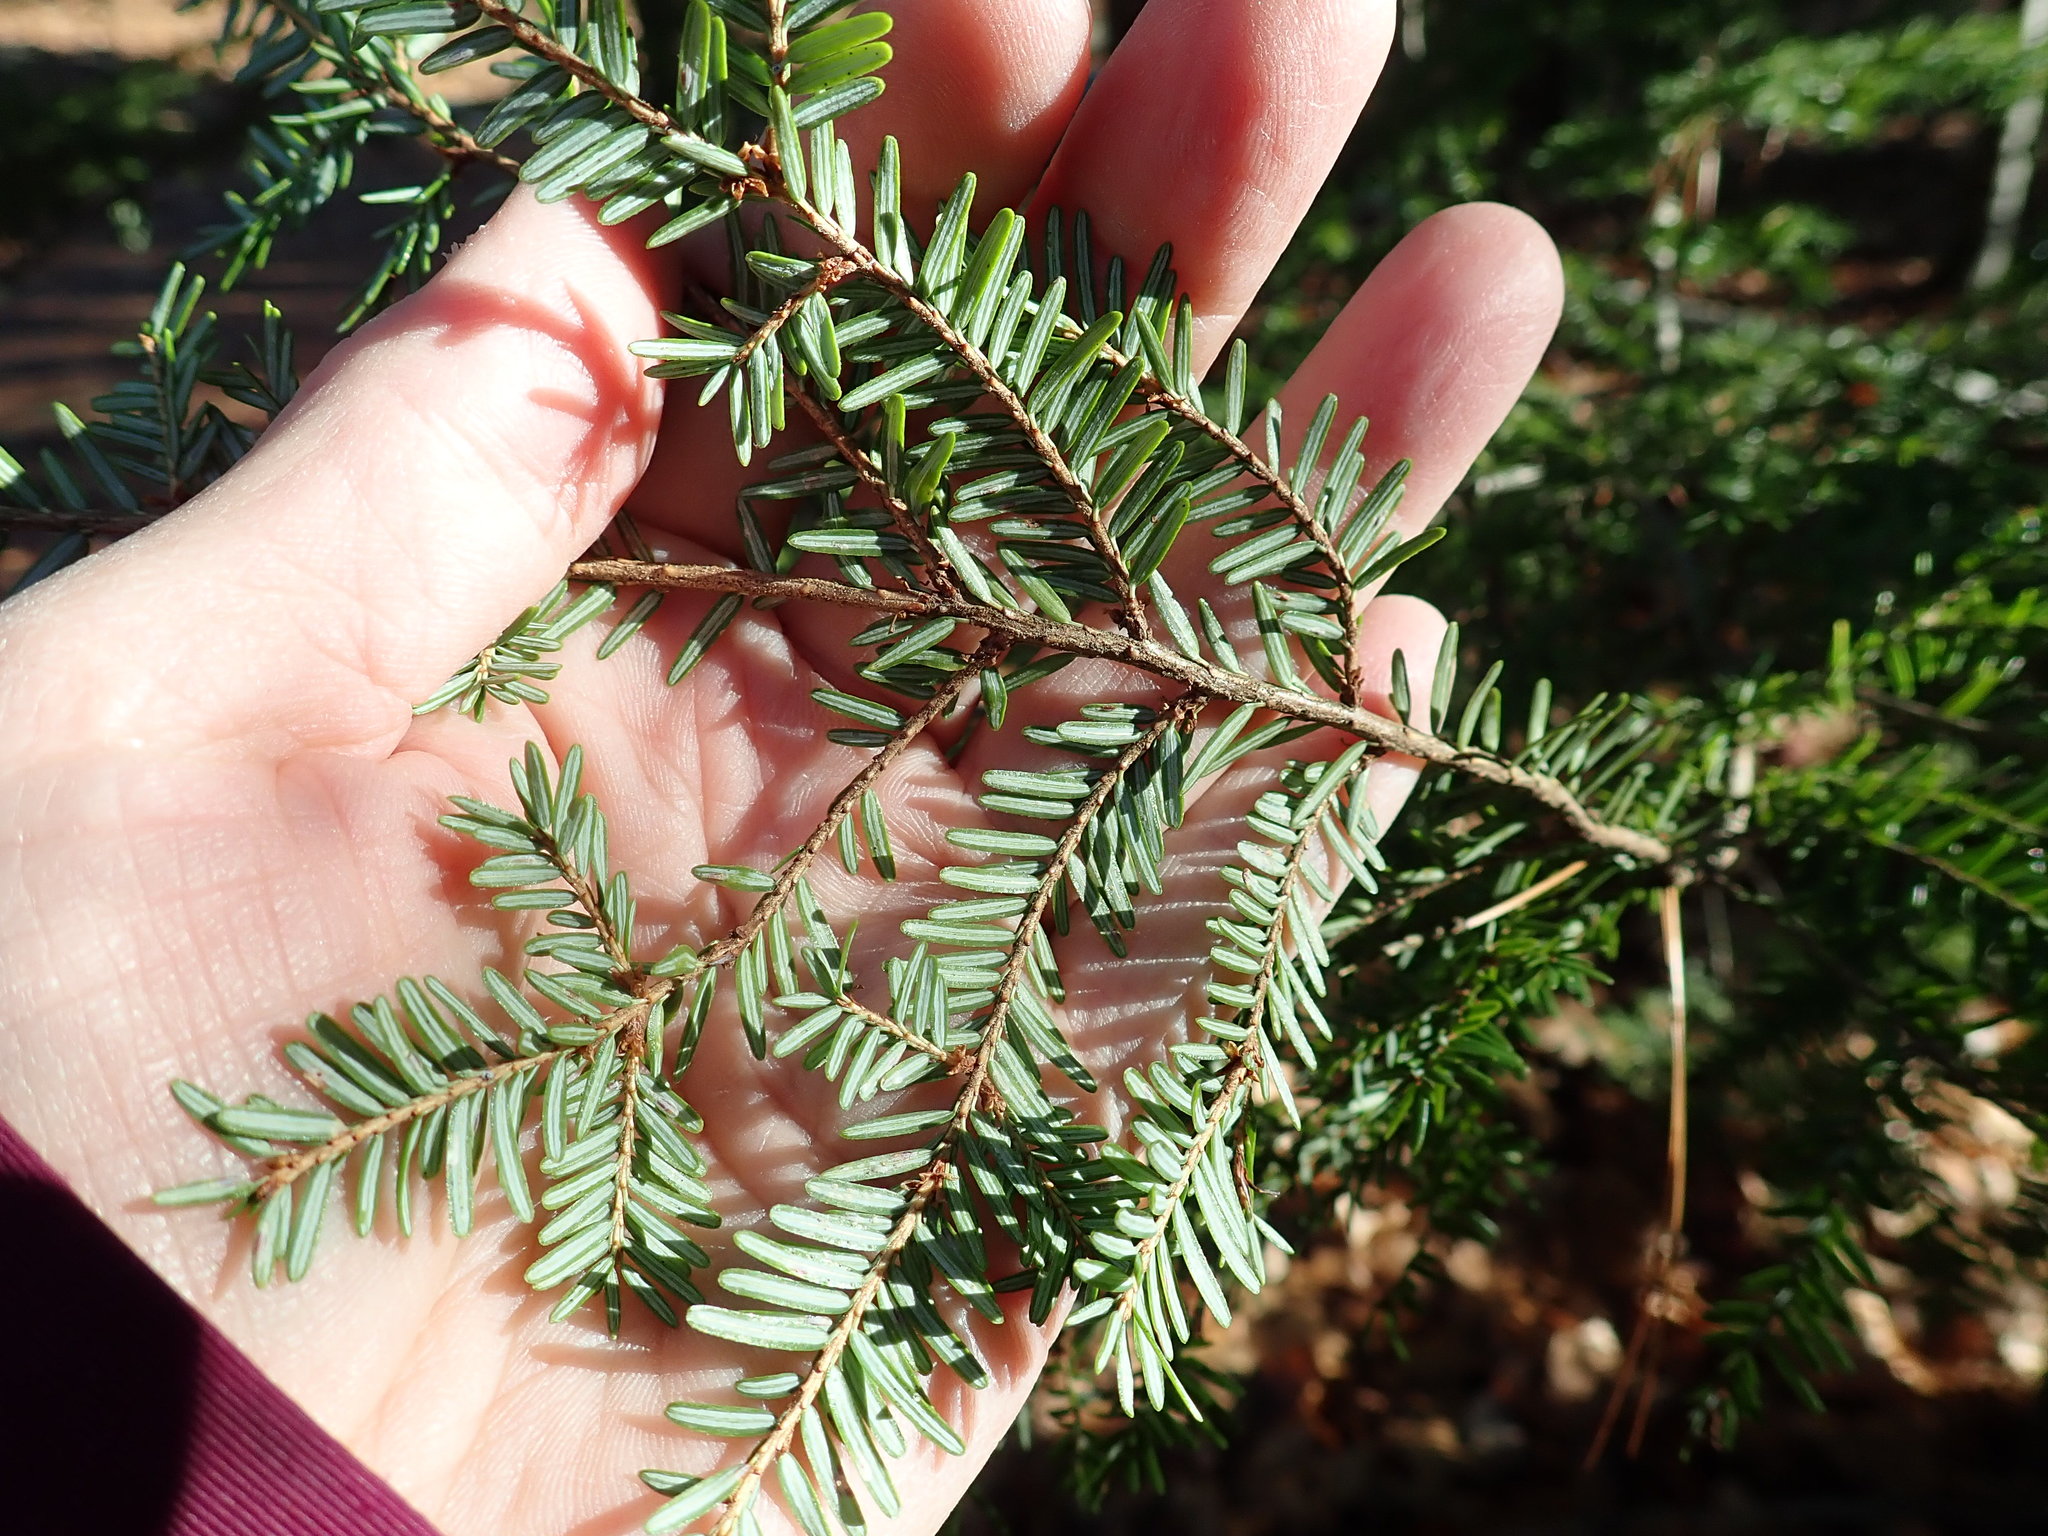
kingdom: Plantae
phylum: Tracheophyta
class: Pinopsida
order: Pinales
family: Pinaceae
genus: Tsuga
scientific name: Tsuga canadensis
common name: Eastern hemlock
